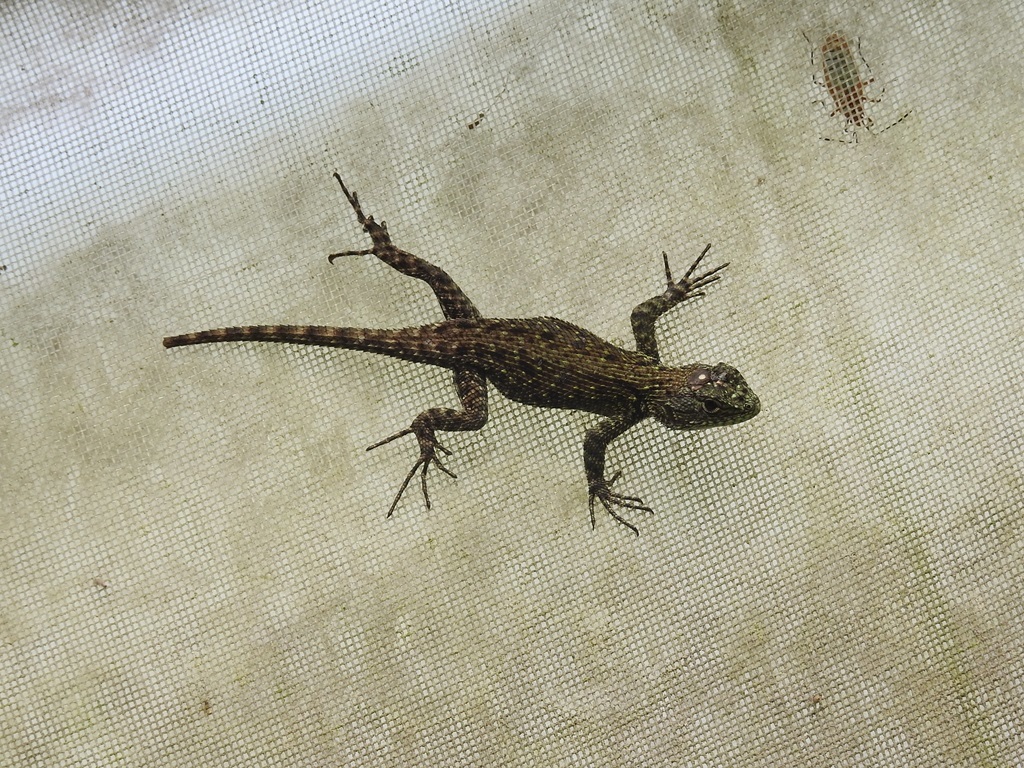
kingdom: Animalia
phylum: Chordata
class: Squamata
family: Phrynosomatidae
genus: Sceloporus
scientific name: Sceloporus taeniocnemis
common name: Guatemalan emerald spiny lizard
